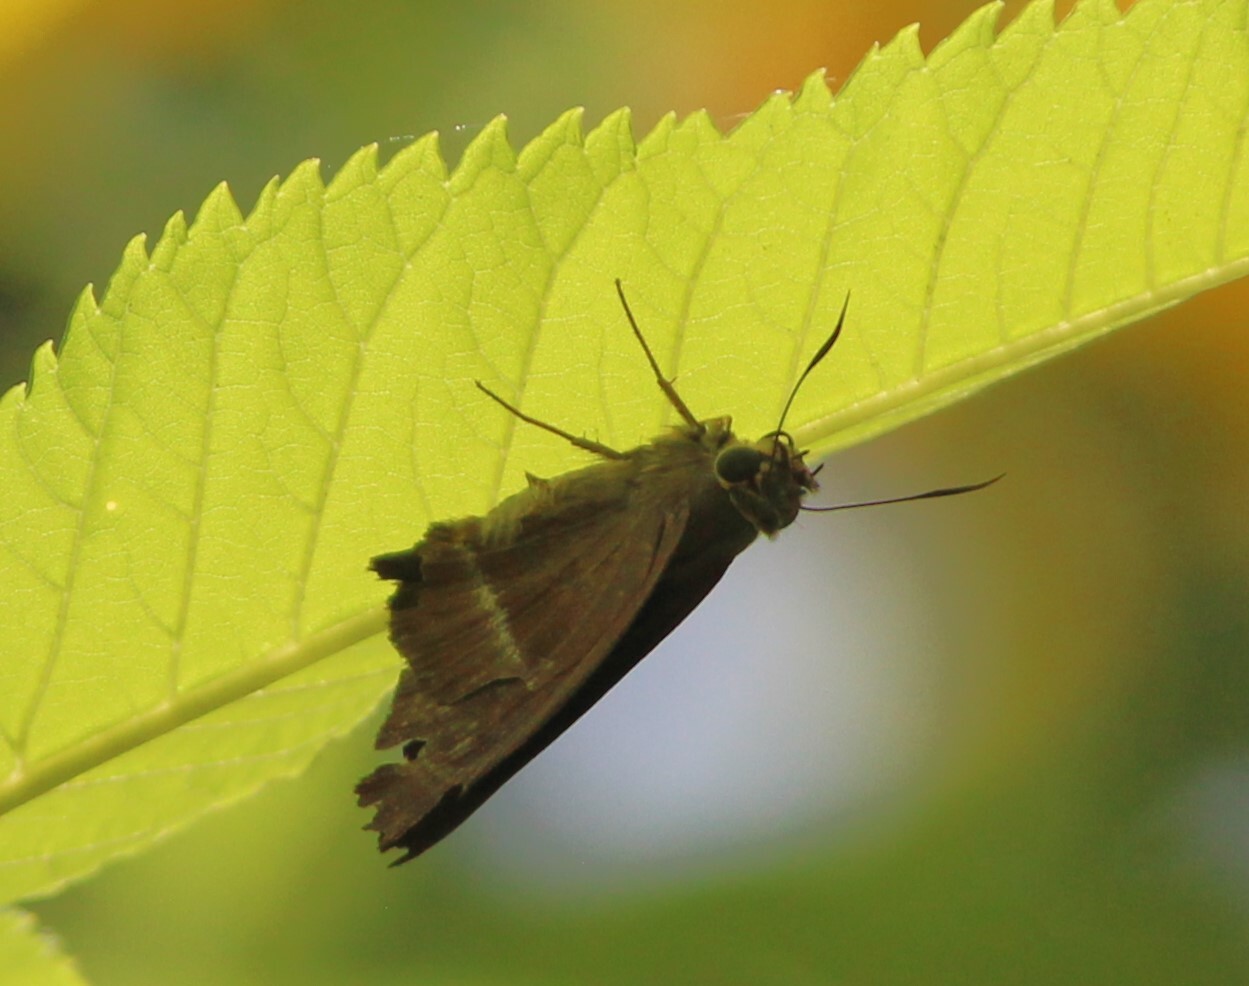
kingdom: Animalia
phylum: Arthropoda
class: Insecta
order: Lepidoptera
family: Hesperiidae
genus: Hasora
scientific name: Hasora chromus
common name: Common banded awl
